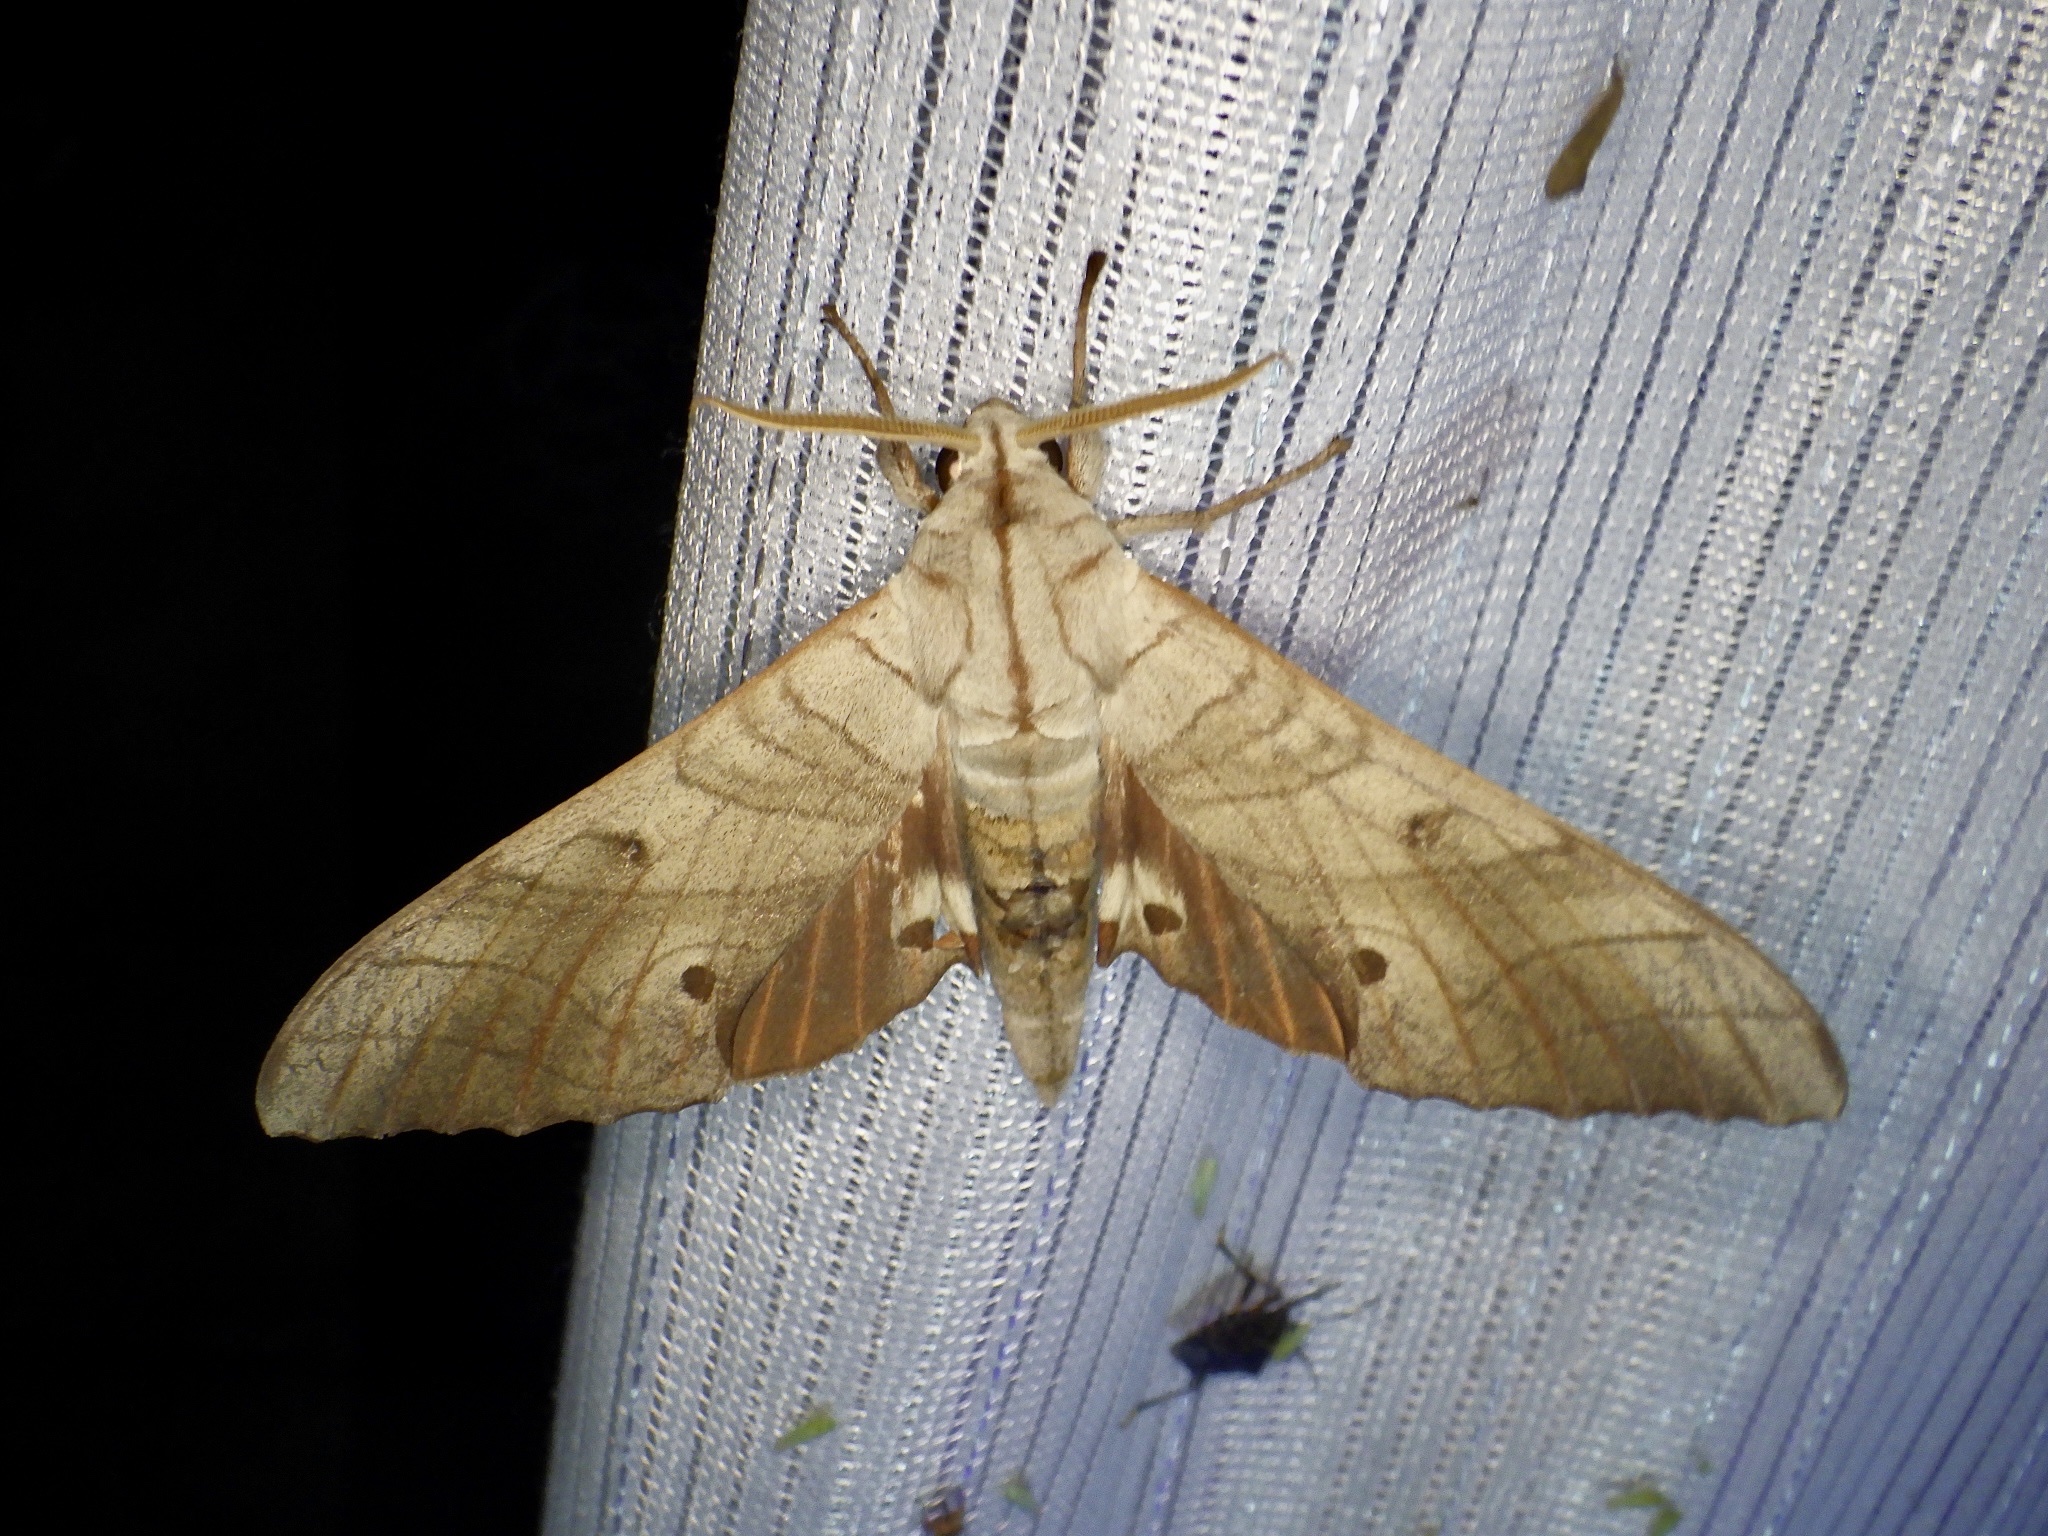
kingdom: Animalia
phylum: Arthropoda
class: Insecta
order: Lepidoptera
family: Sphingidae
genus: Marumba
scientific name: Marumba sperchius
